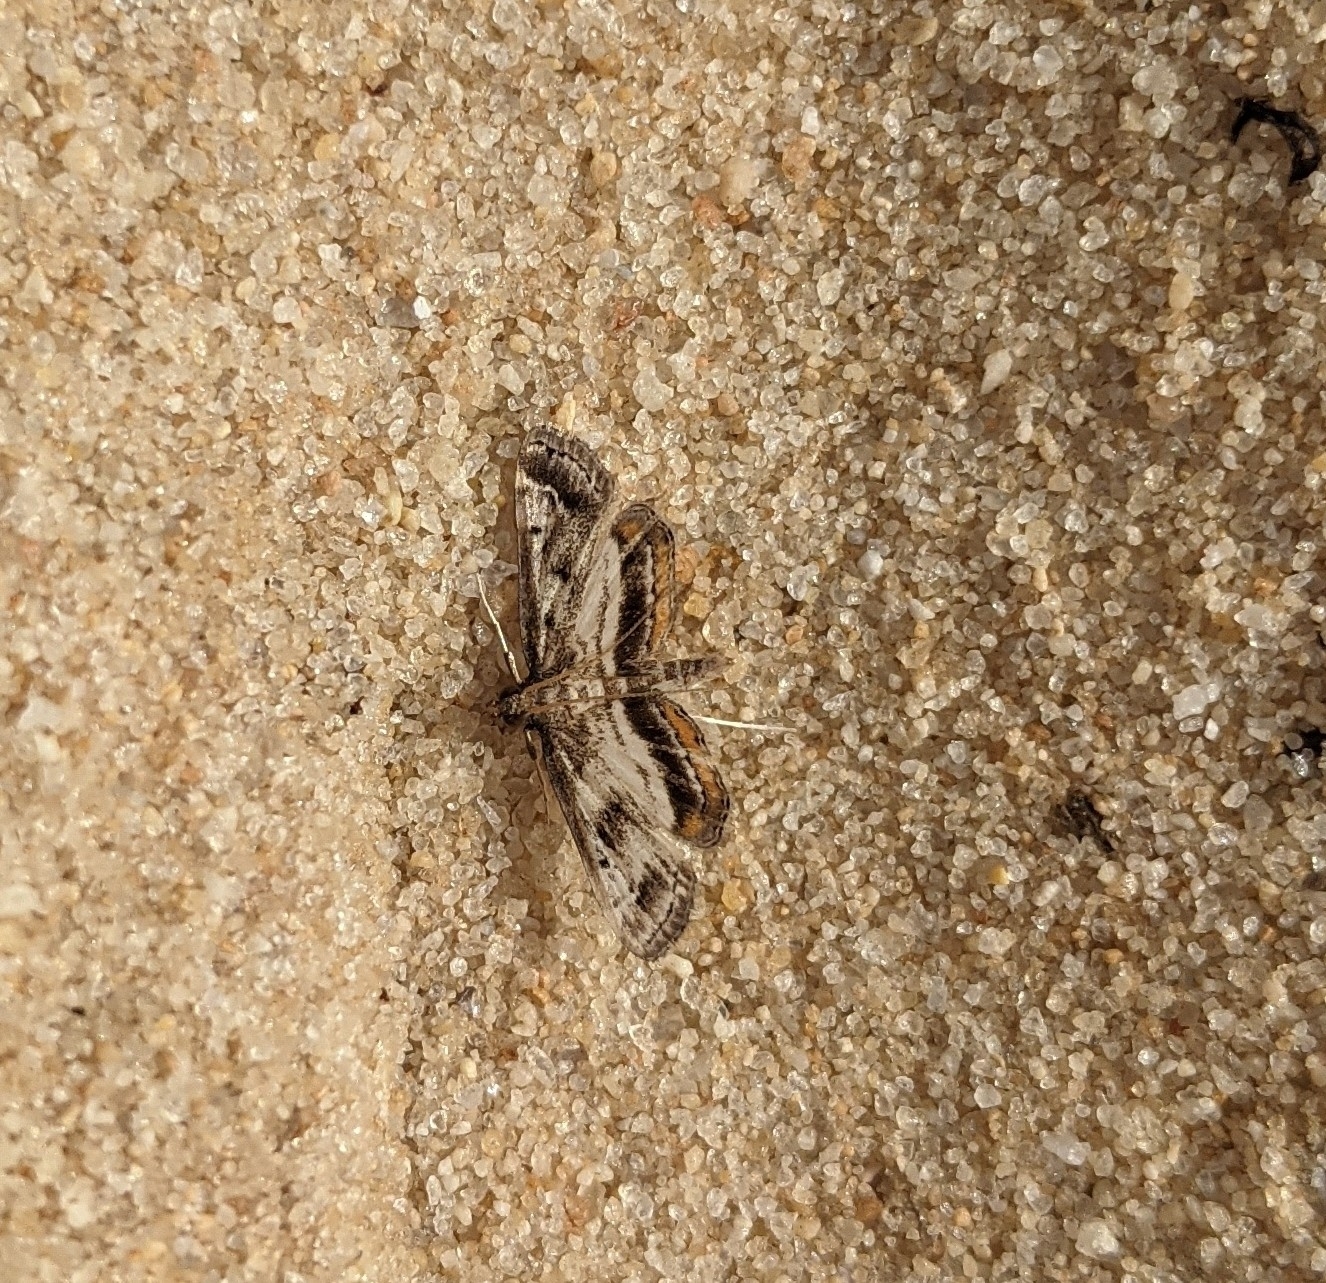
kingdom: Animalia
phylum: Arthropoda
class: Insecta
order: Lepidoptera
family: Crambidae
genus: Parapoynx
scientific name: Parapoynx obscuralis
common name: American china-mark
